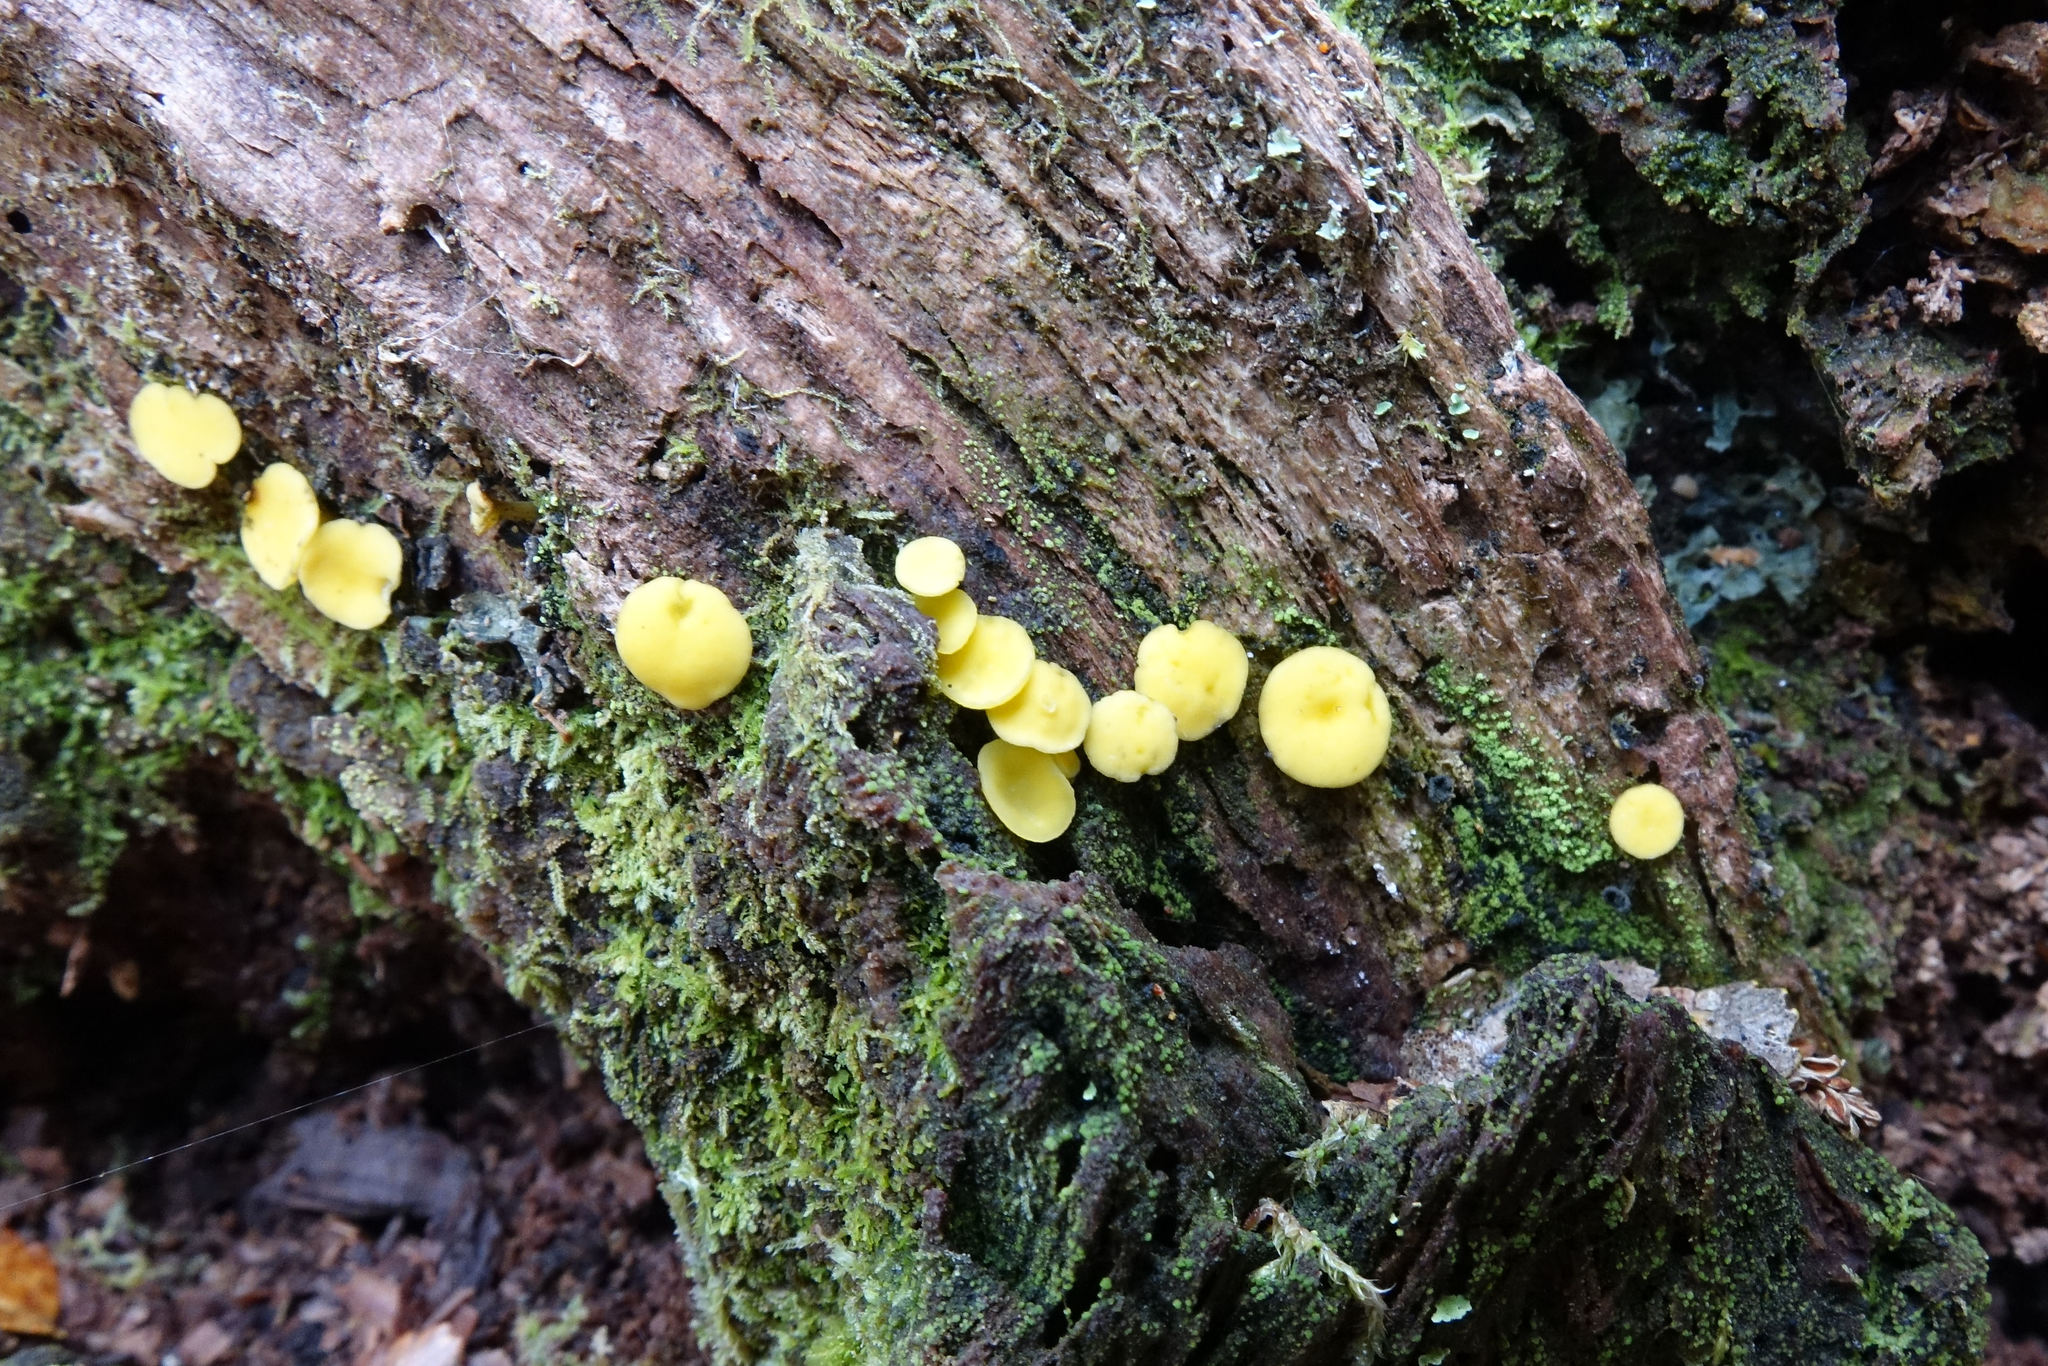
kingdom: Fungi
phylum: Ascomycota
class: Leotiomycetes
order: Helotiales
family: Pezizellaceae
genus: Calycina
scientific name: Calycina citrina
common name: Yellow fairy cups
